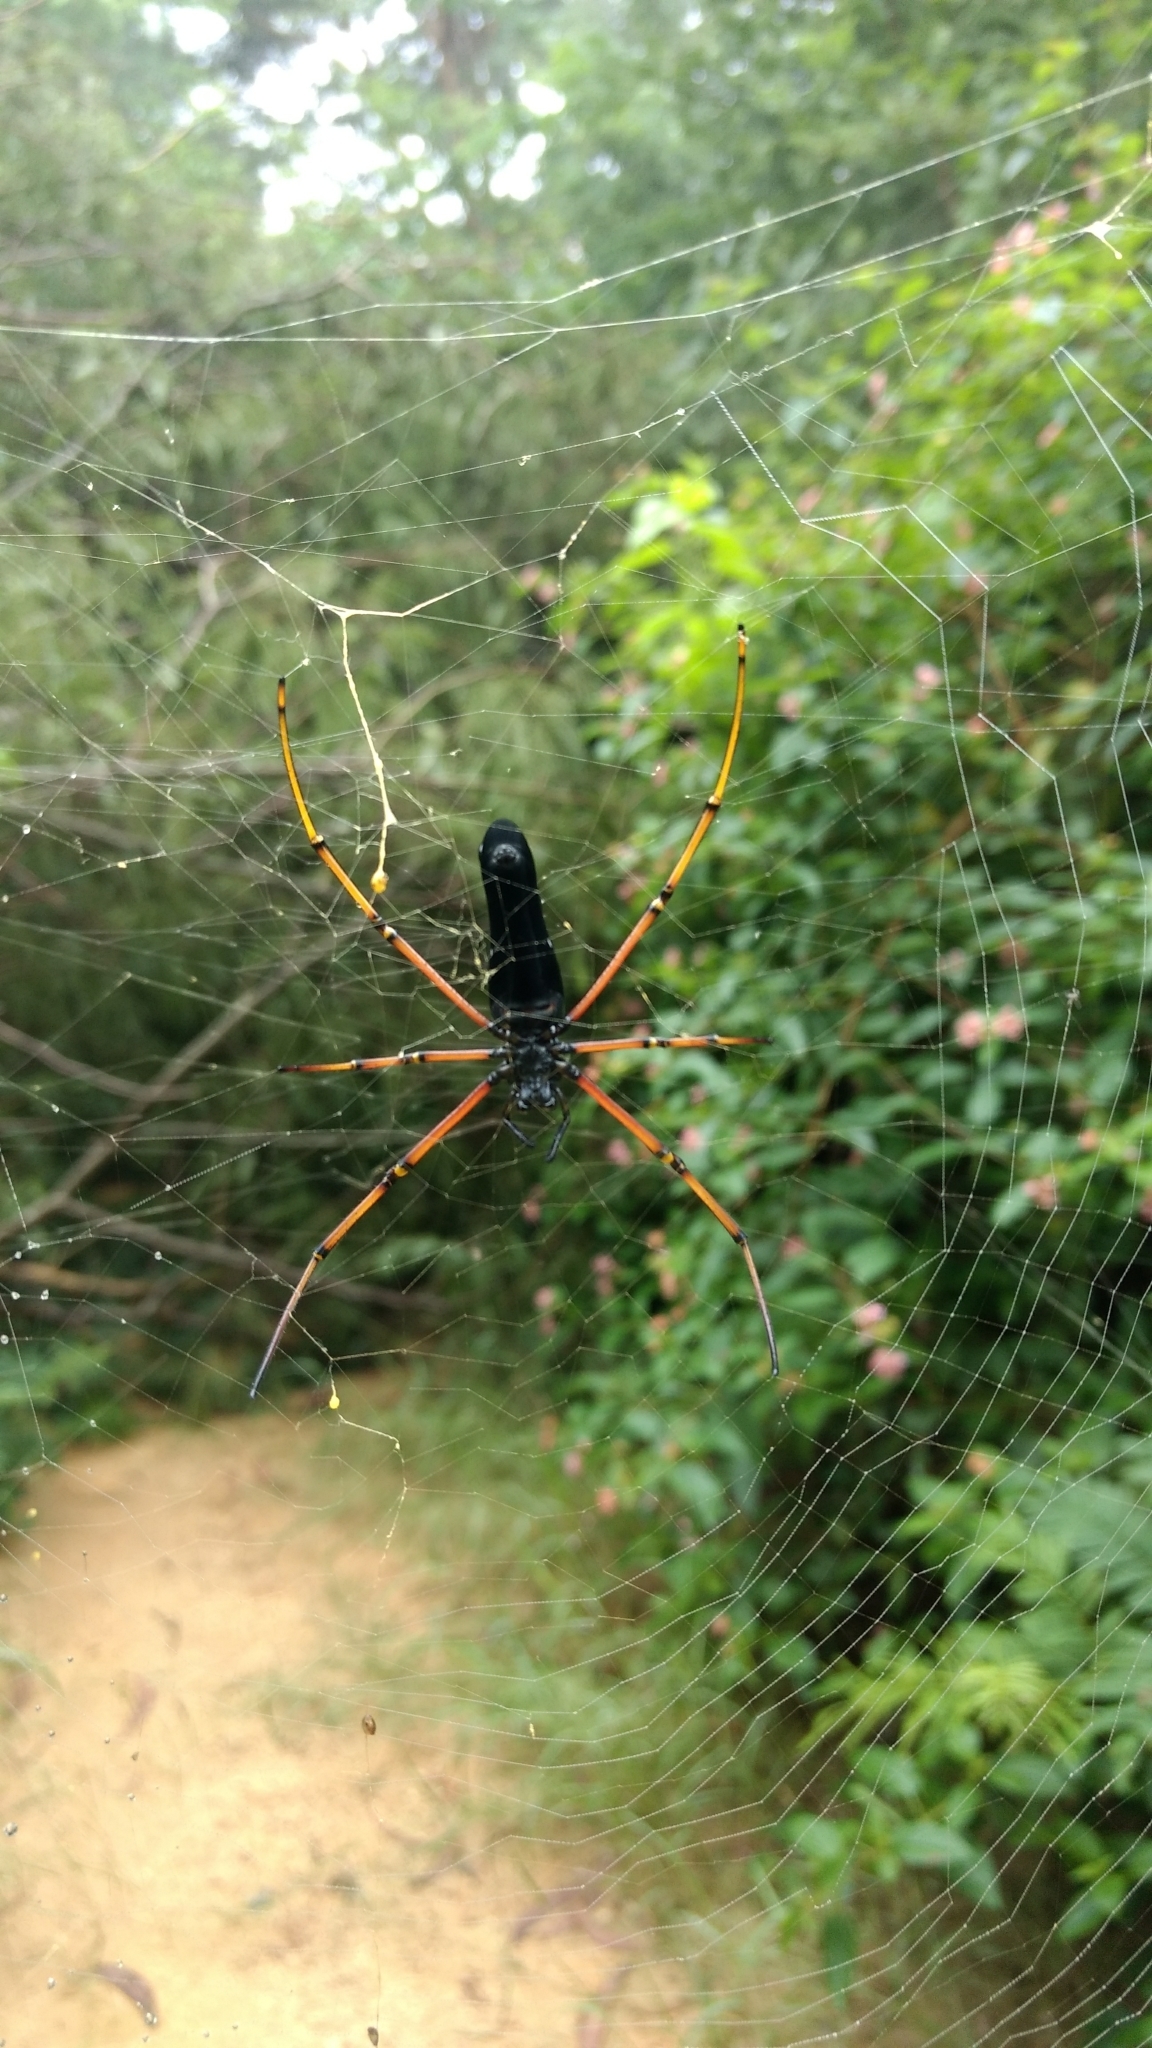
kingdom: Animalia
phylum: Arthropoda
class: Arachnida
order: Araneae
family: Araneidae
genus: Nephila
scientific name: Nephila kuhli
